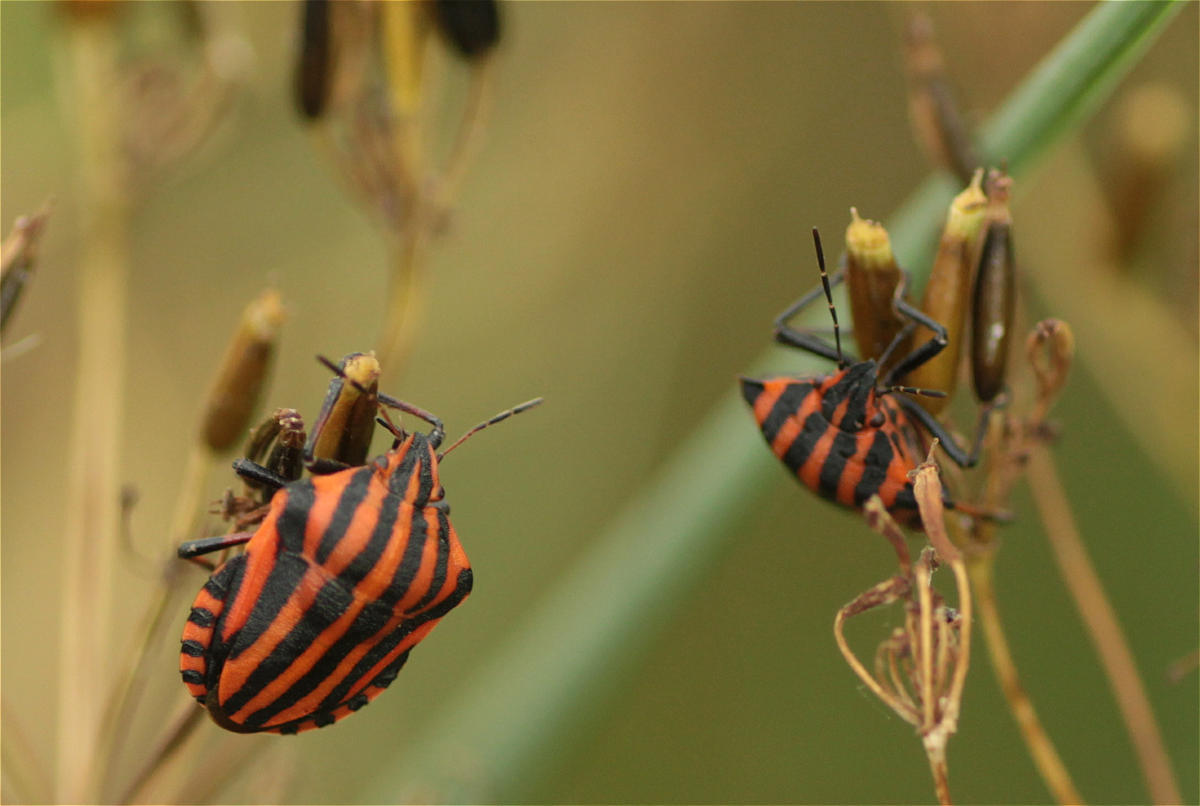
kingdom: Animalia
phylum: Arthropoda
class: Insecta
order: Hemiptera
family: Pentatomidae
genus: Graphosoma
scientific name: Graphosoma italicum
